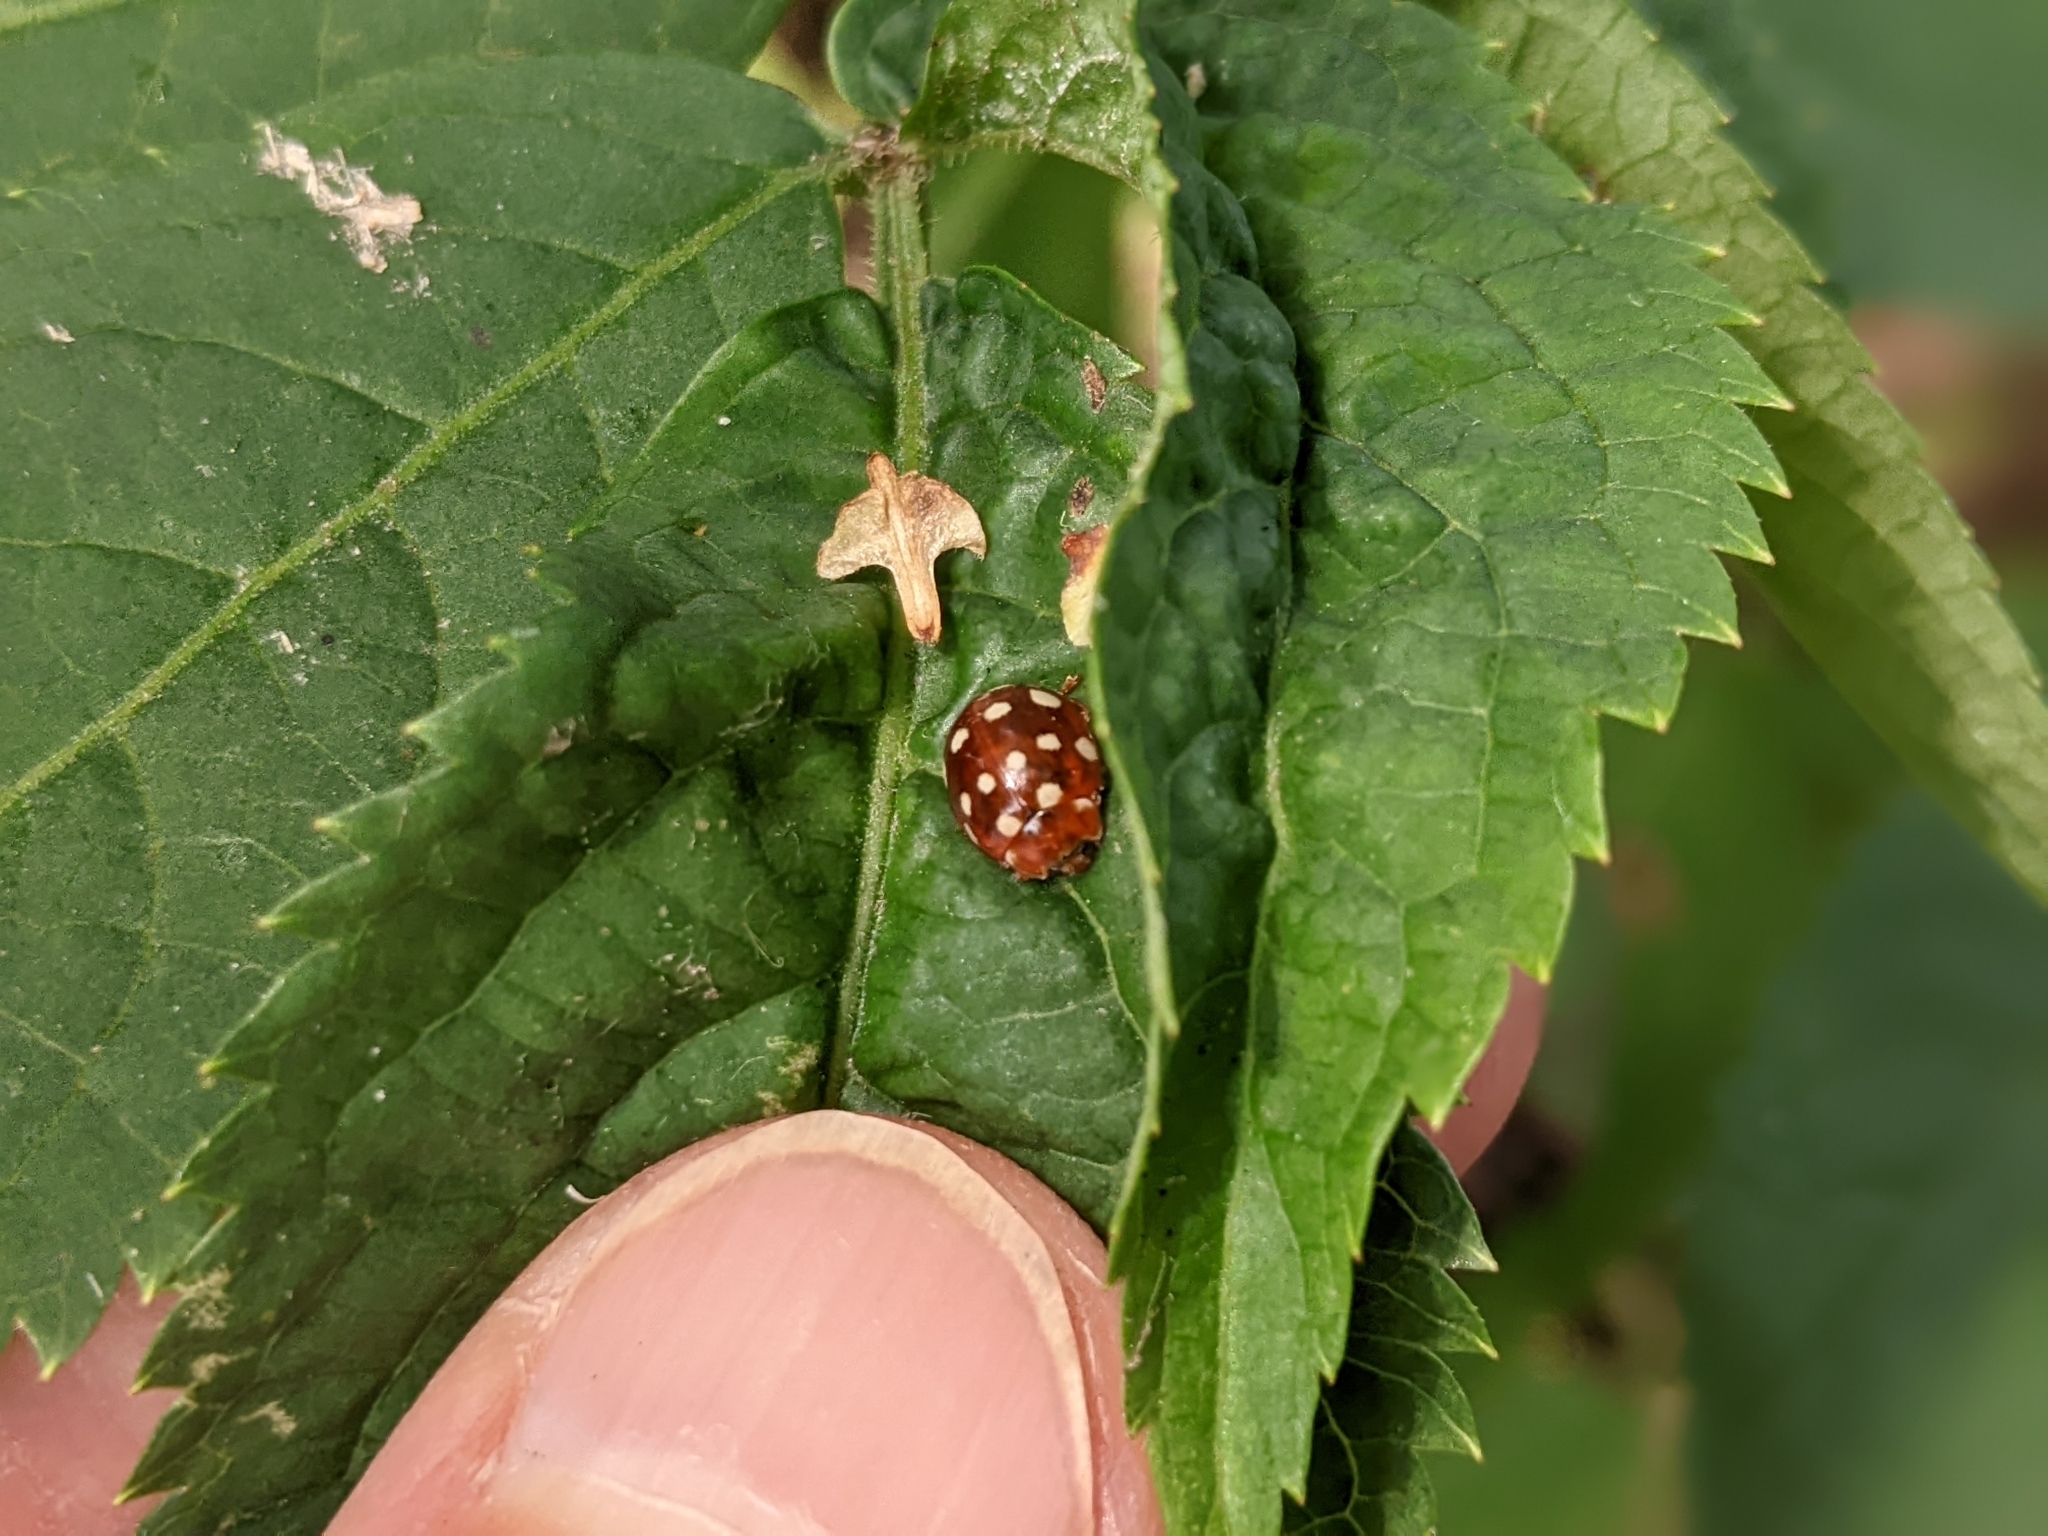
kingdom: Animalia
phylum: Arthropoda
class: Insecta
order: Coleoptera
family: Coccinellidae
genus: Calvia
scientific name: Calvia quatuordecimguttata
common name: Cream-spot ladybird
